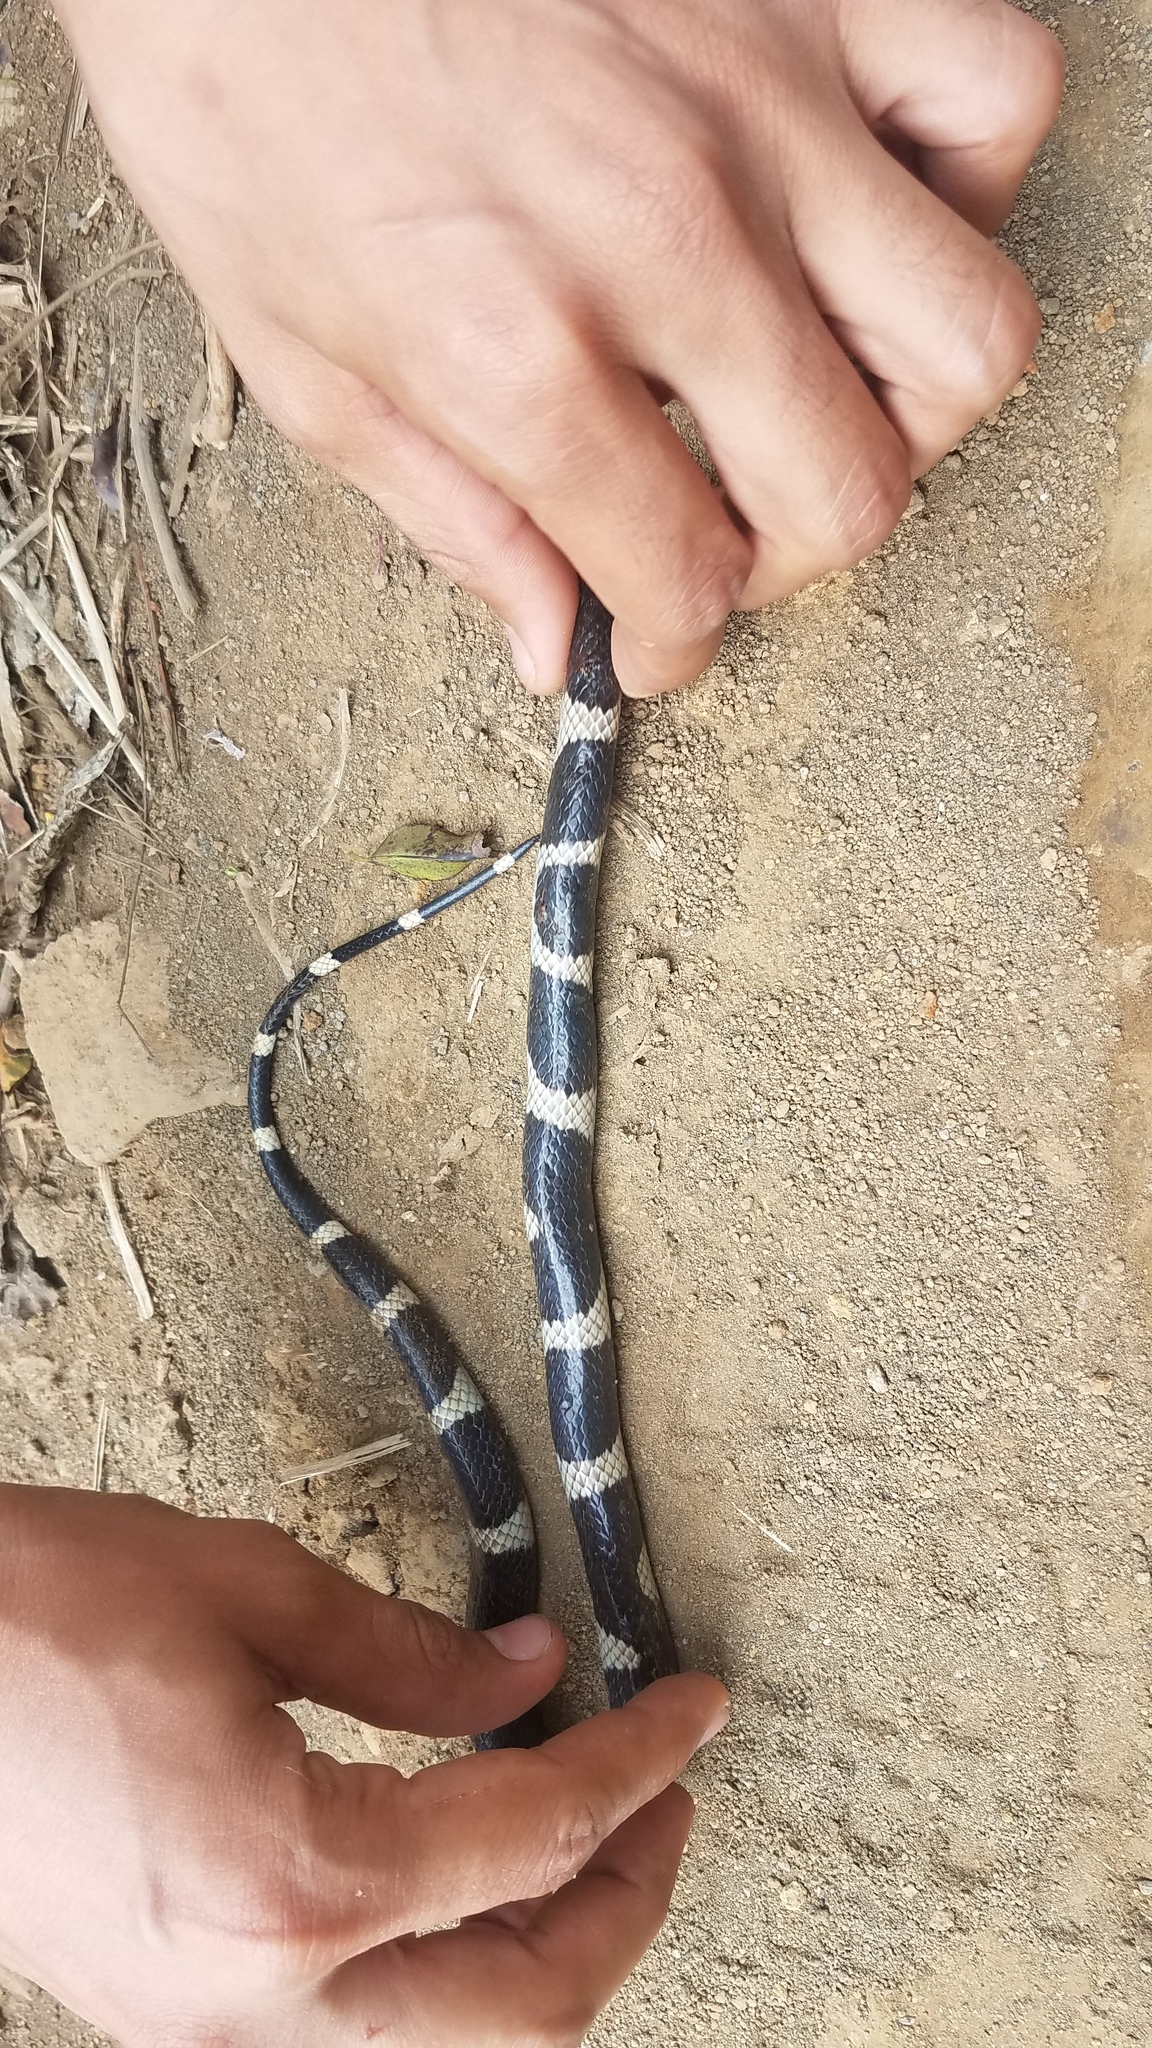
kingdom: Animalia
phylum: Chordata
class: Squamata
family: Colubridae
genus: Leptodeira
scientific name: Leptodeira nigrofasciata
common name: Black-banded cat-eyed snake
